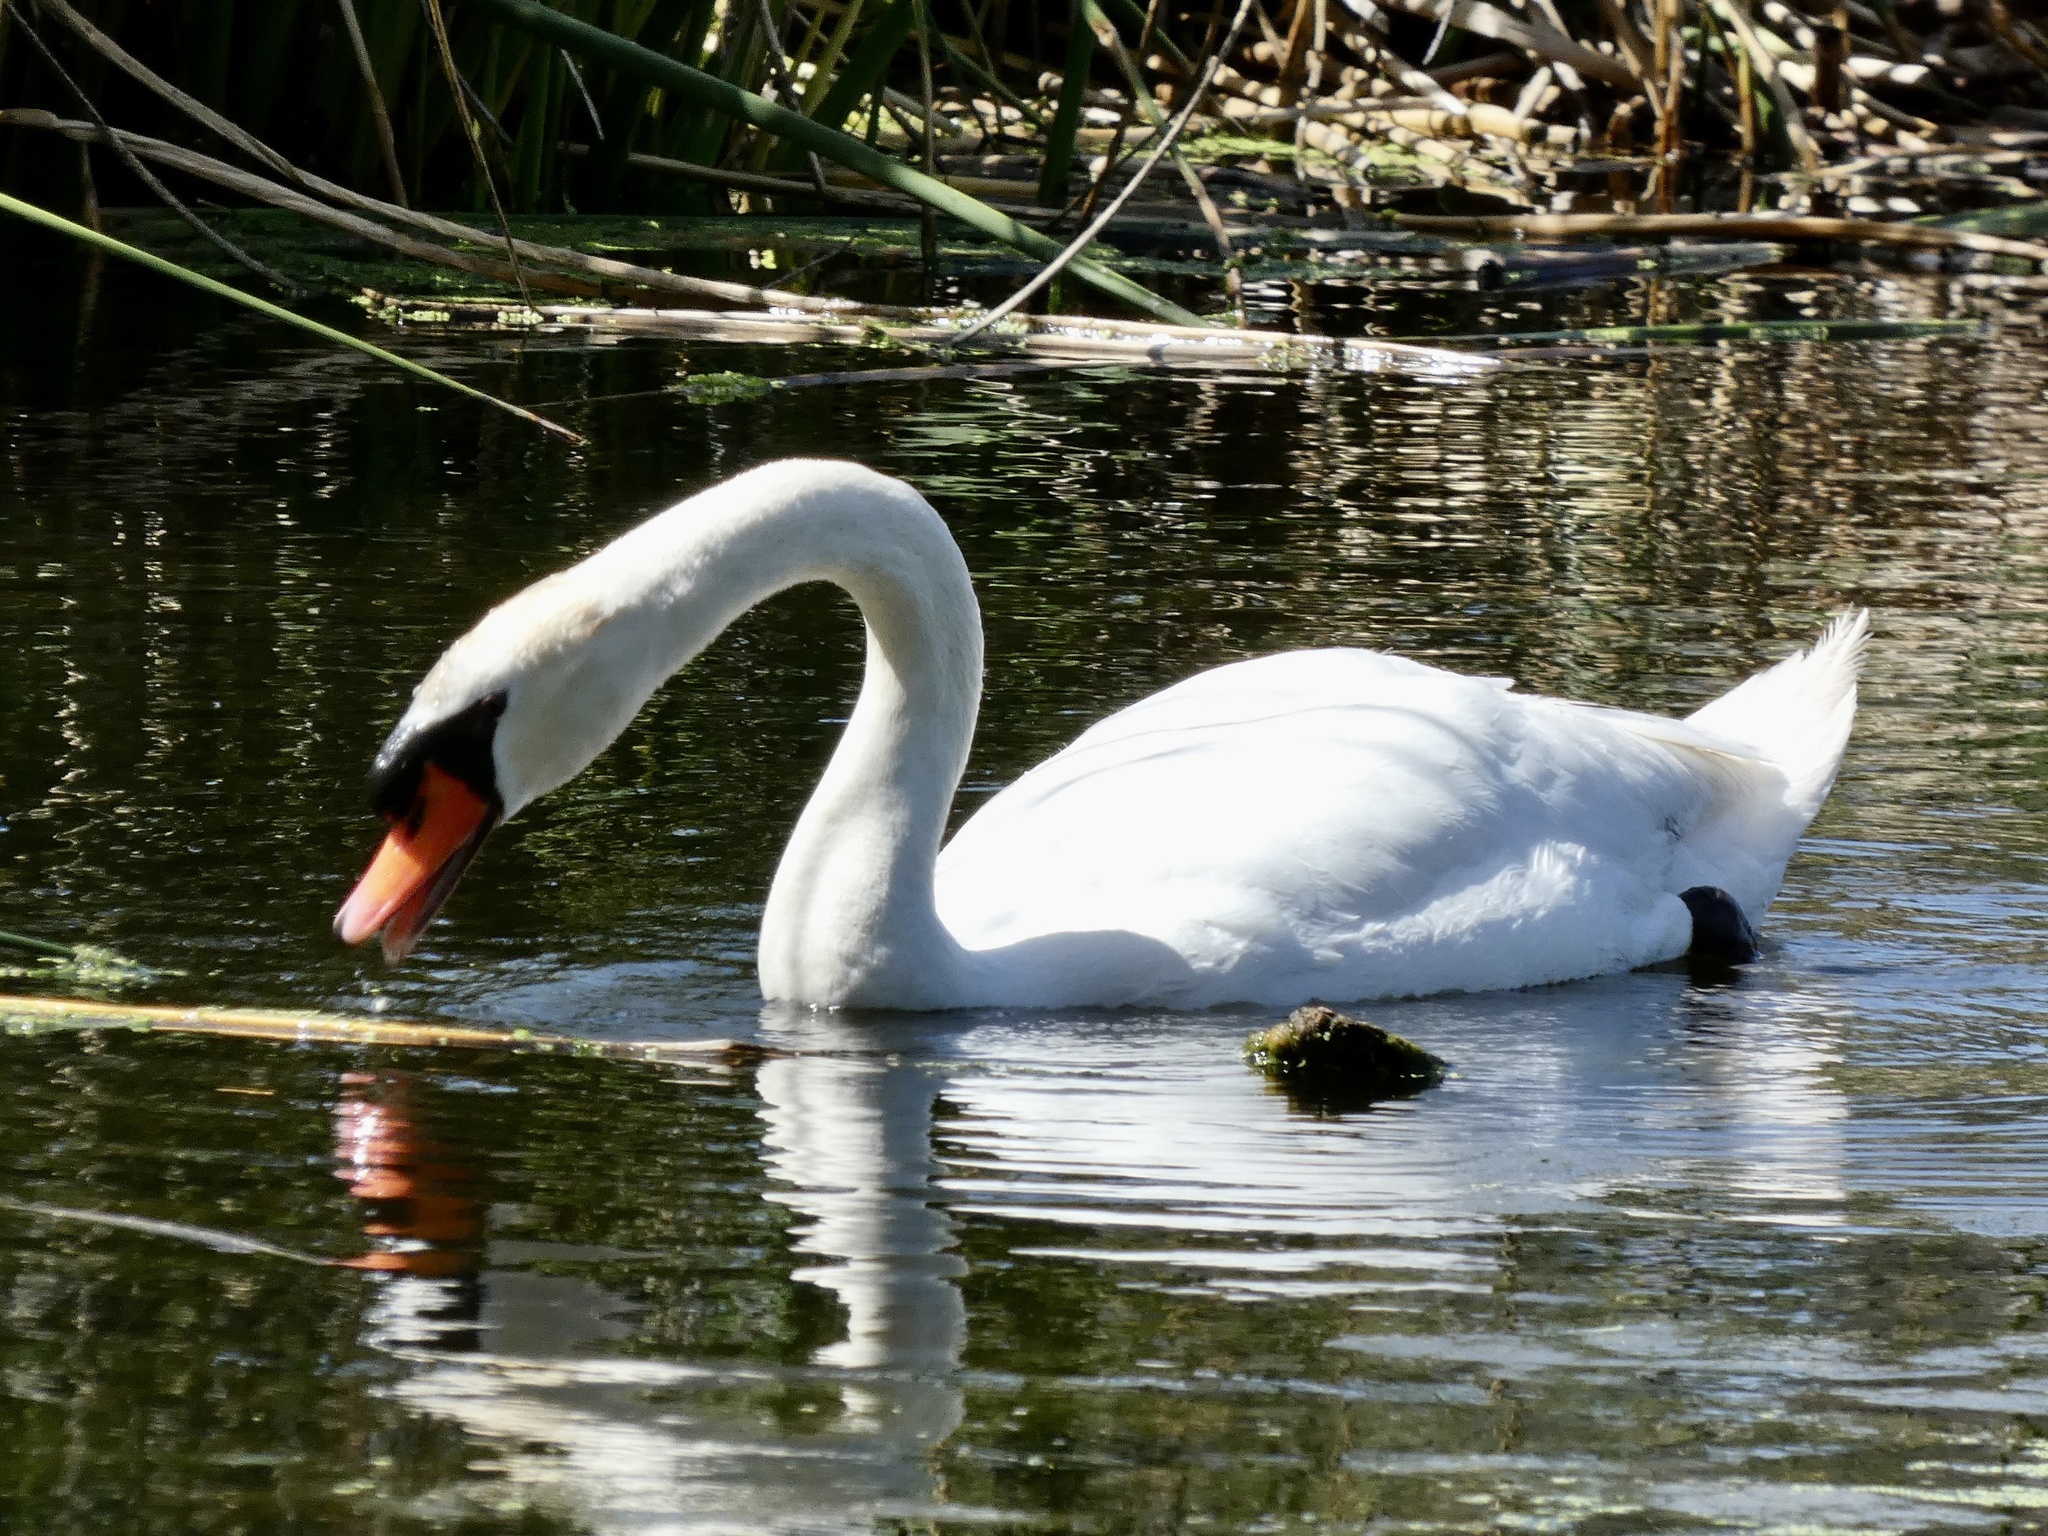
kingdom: Animalia
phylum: Chordata
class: Aves
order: Anseriformes
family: Anatidae
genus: Cygnus
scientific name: Cygnus olor
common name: Mute swan
